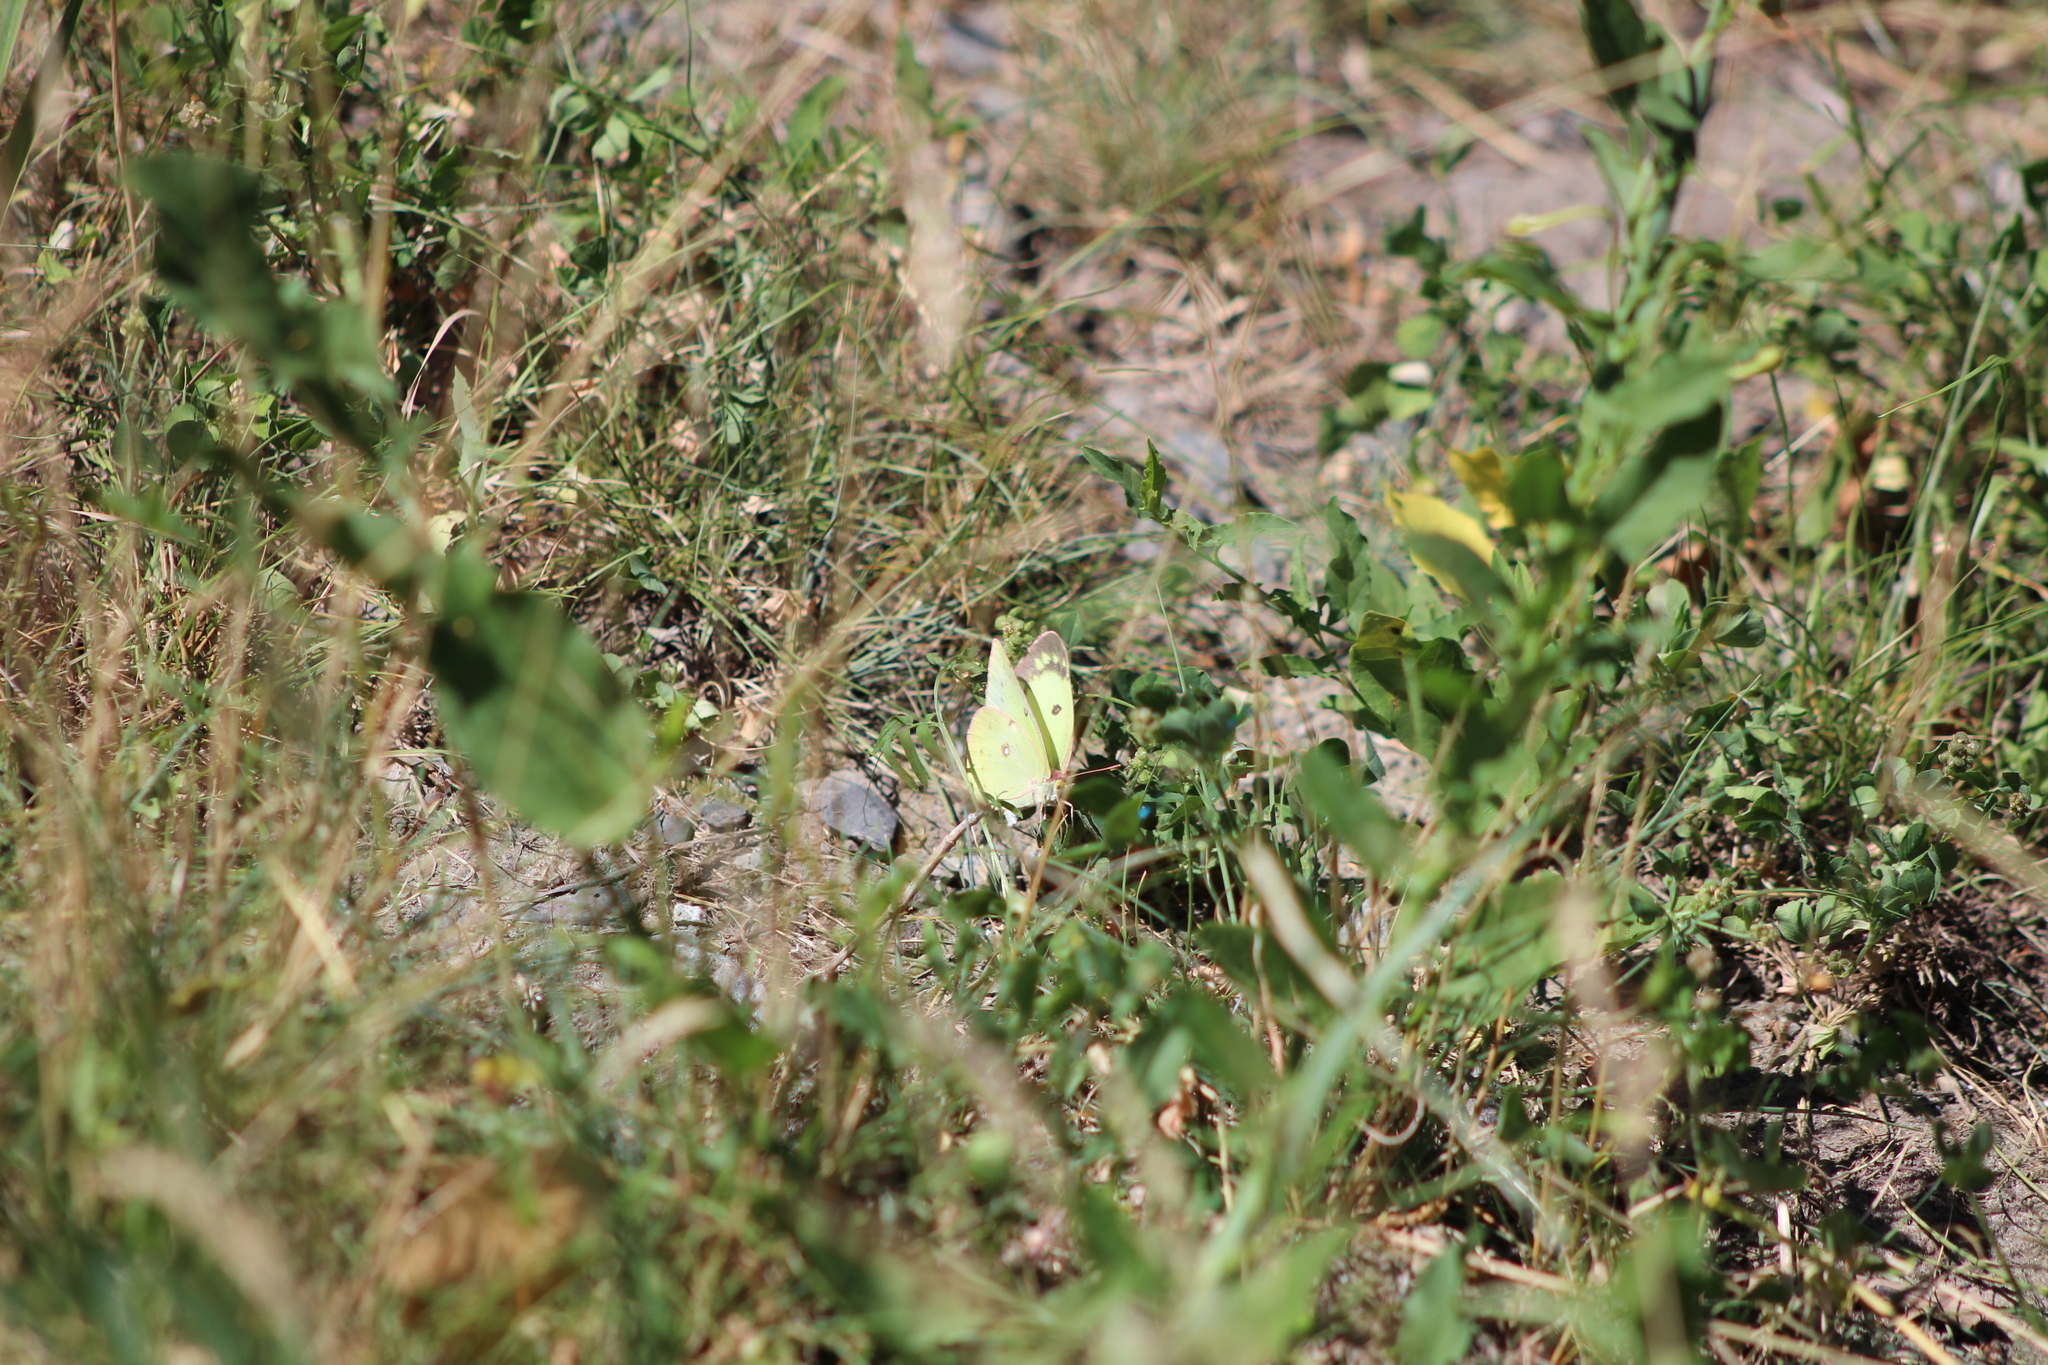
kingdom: Animalia
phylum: Arthropoda
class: Insecta
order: Lepidoptera
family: Pieridae
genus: Colias
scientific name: Colias philodice
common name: Clouded sulphur
